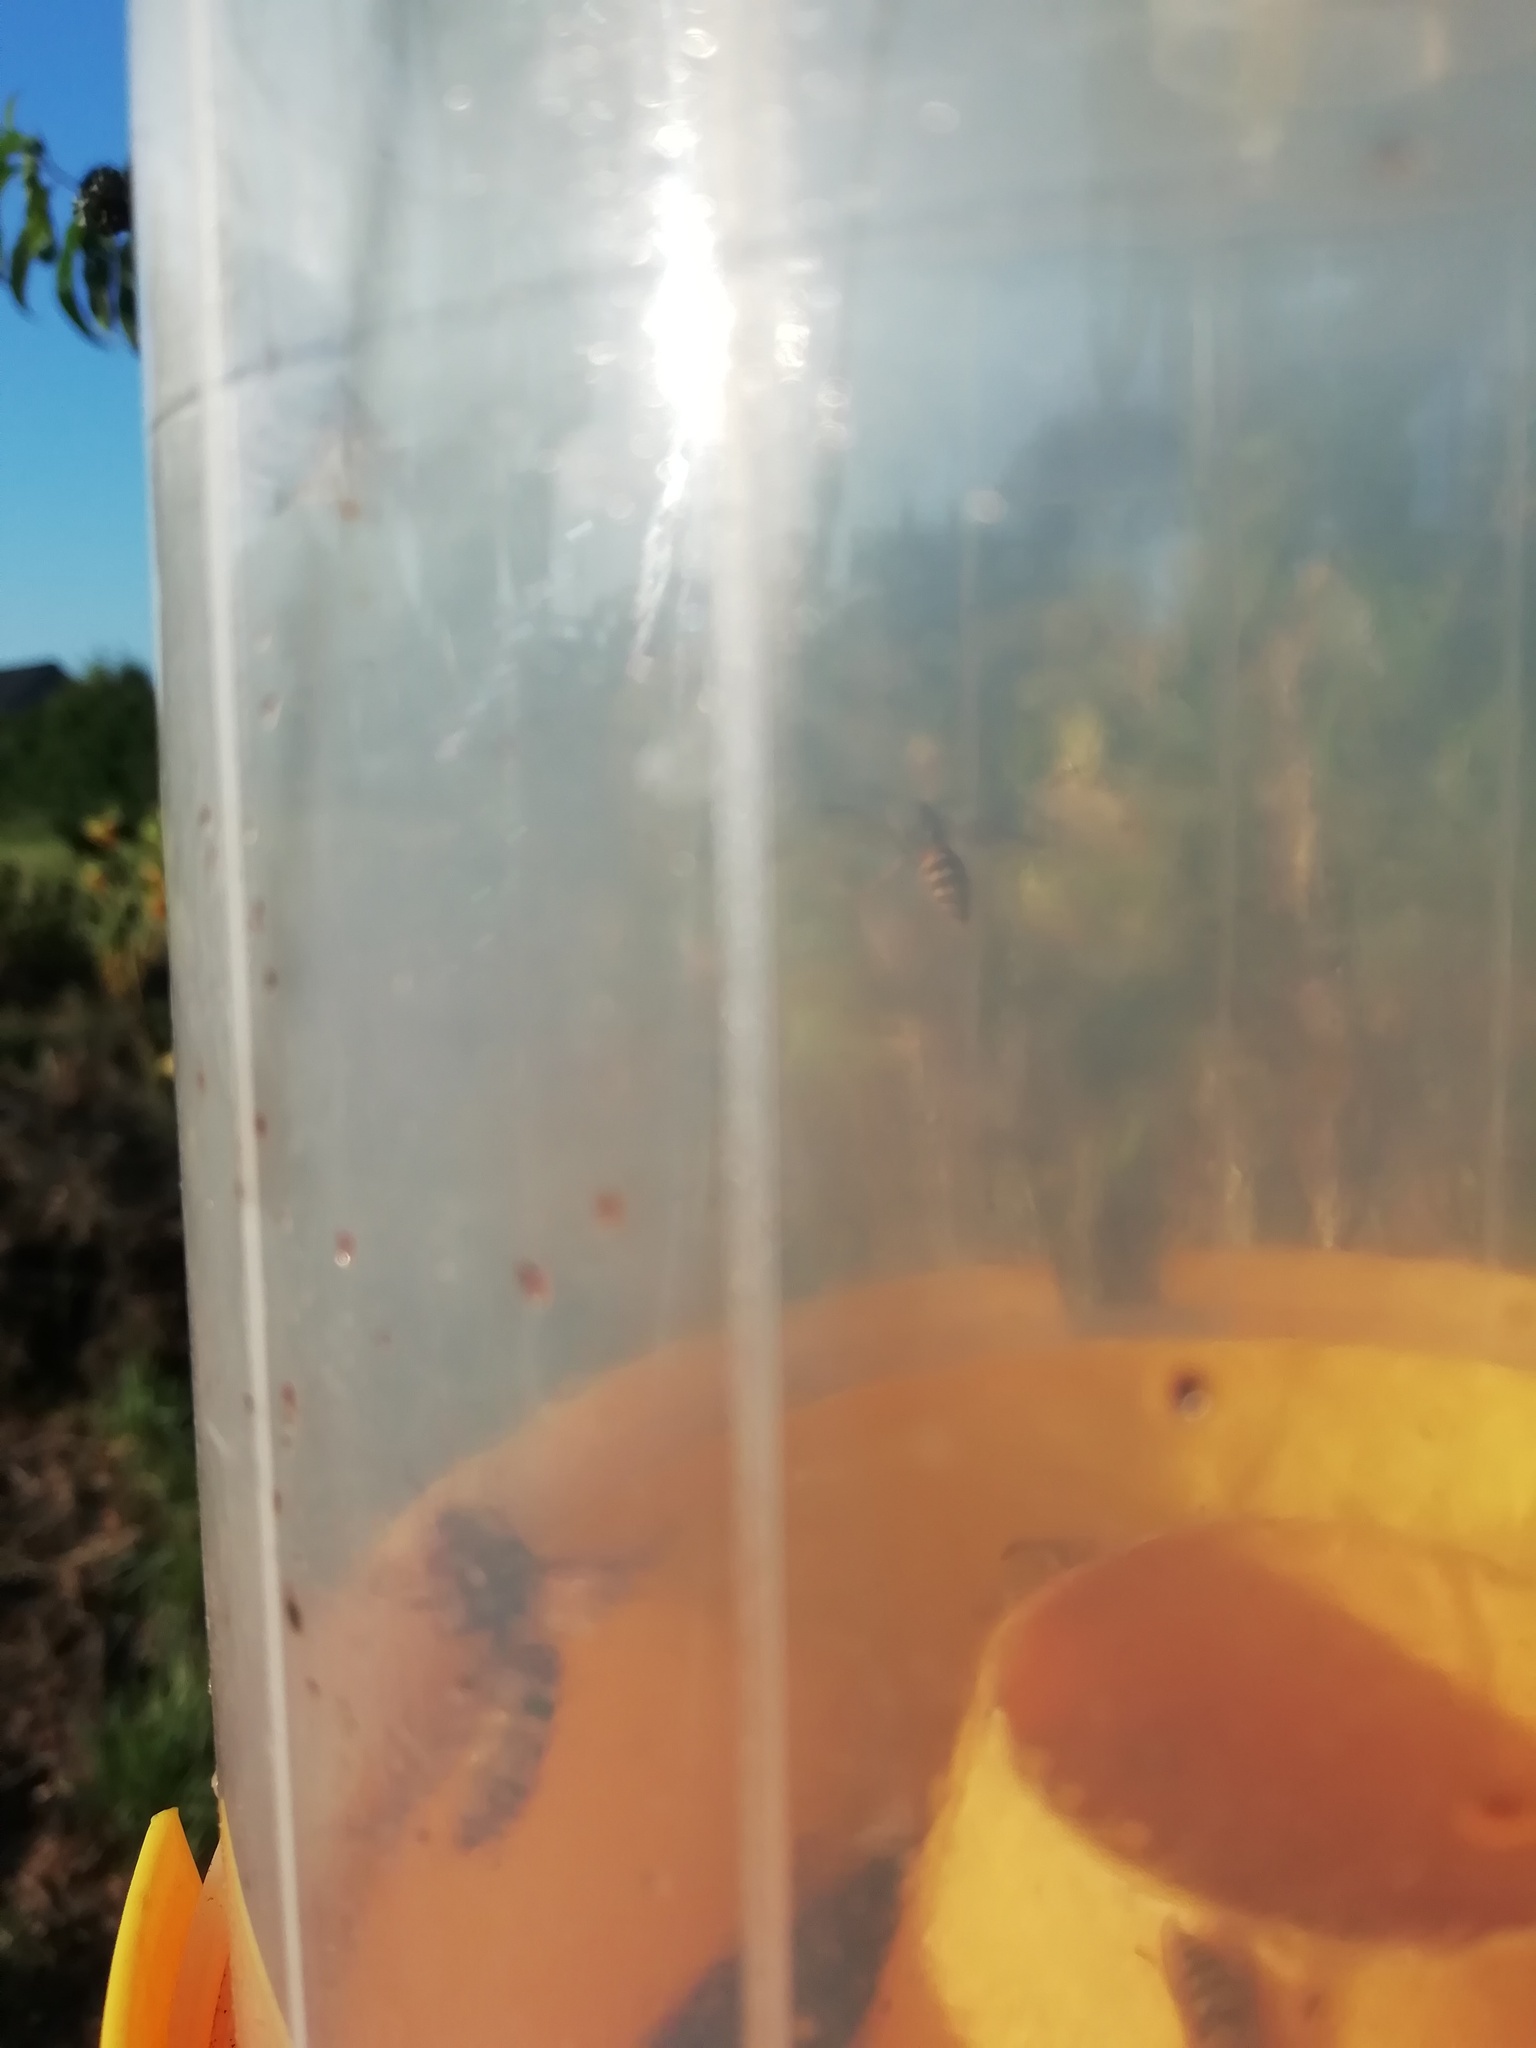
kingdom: Animalia
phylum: Arthropoda
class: Insecta
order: Hymenoptera
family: Vespidae
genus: Vespa
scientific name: Vespa crabro
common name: Hornet
